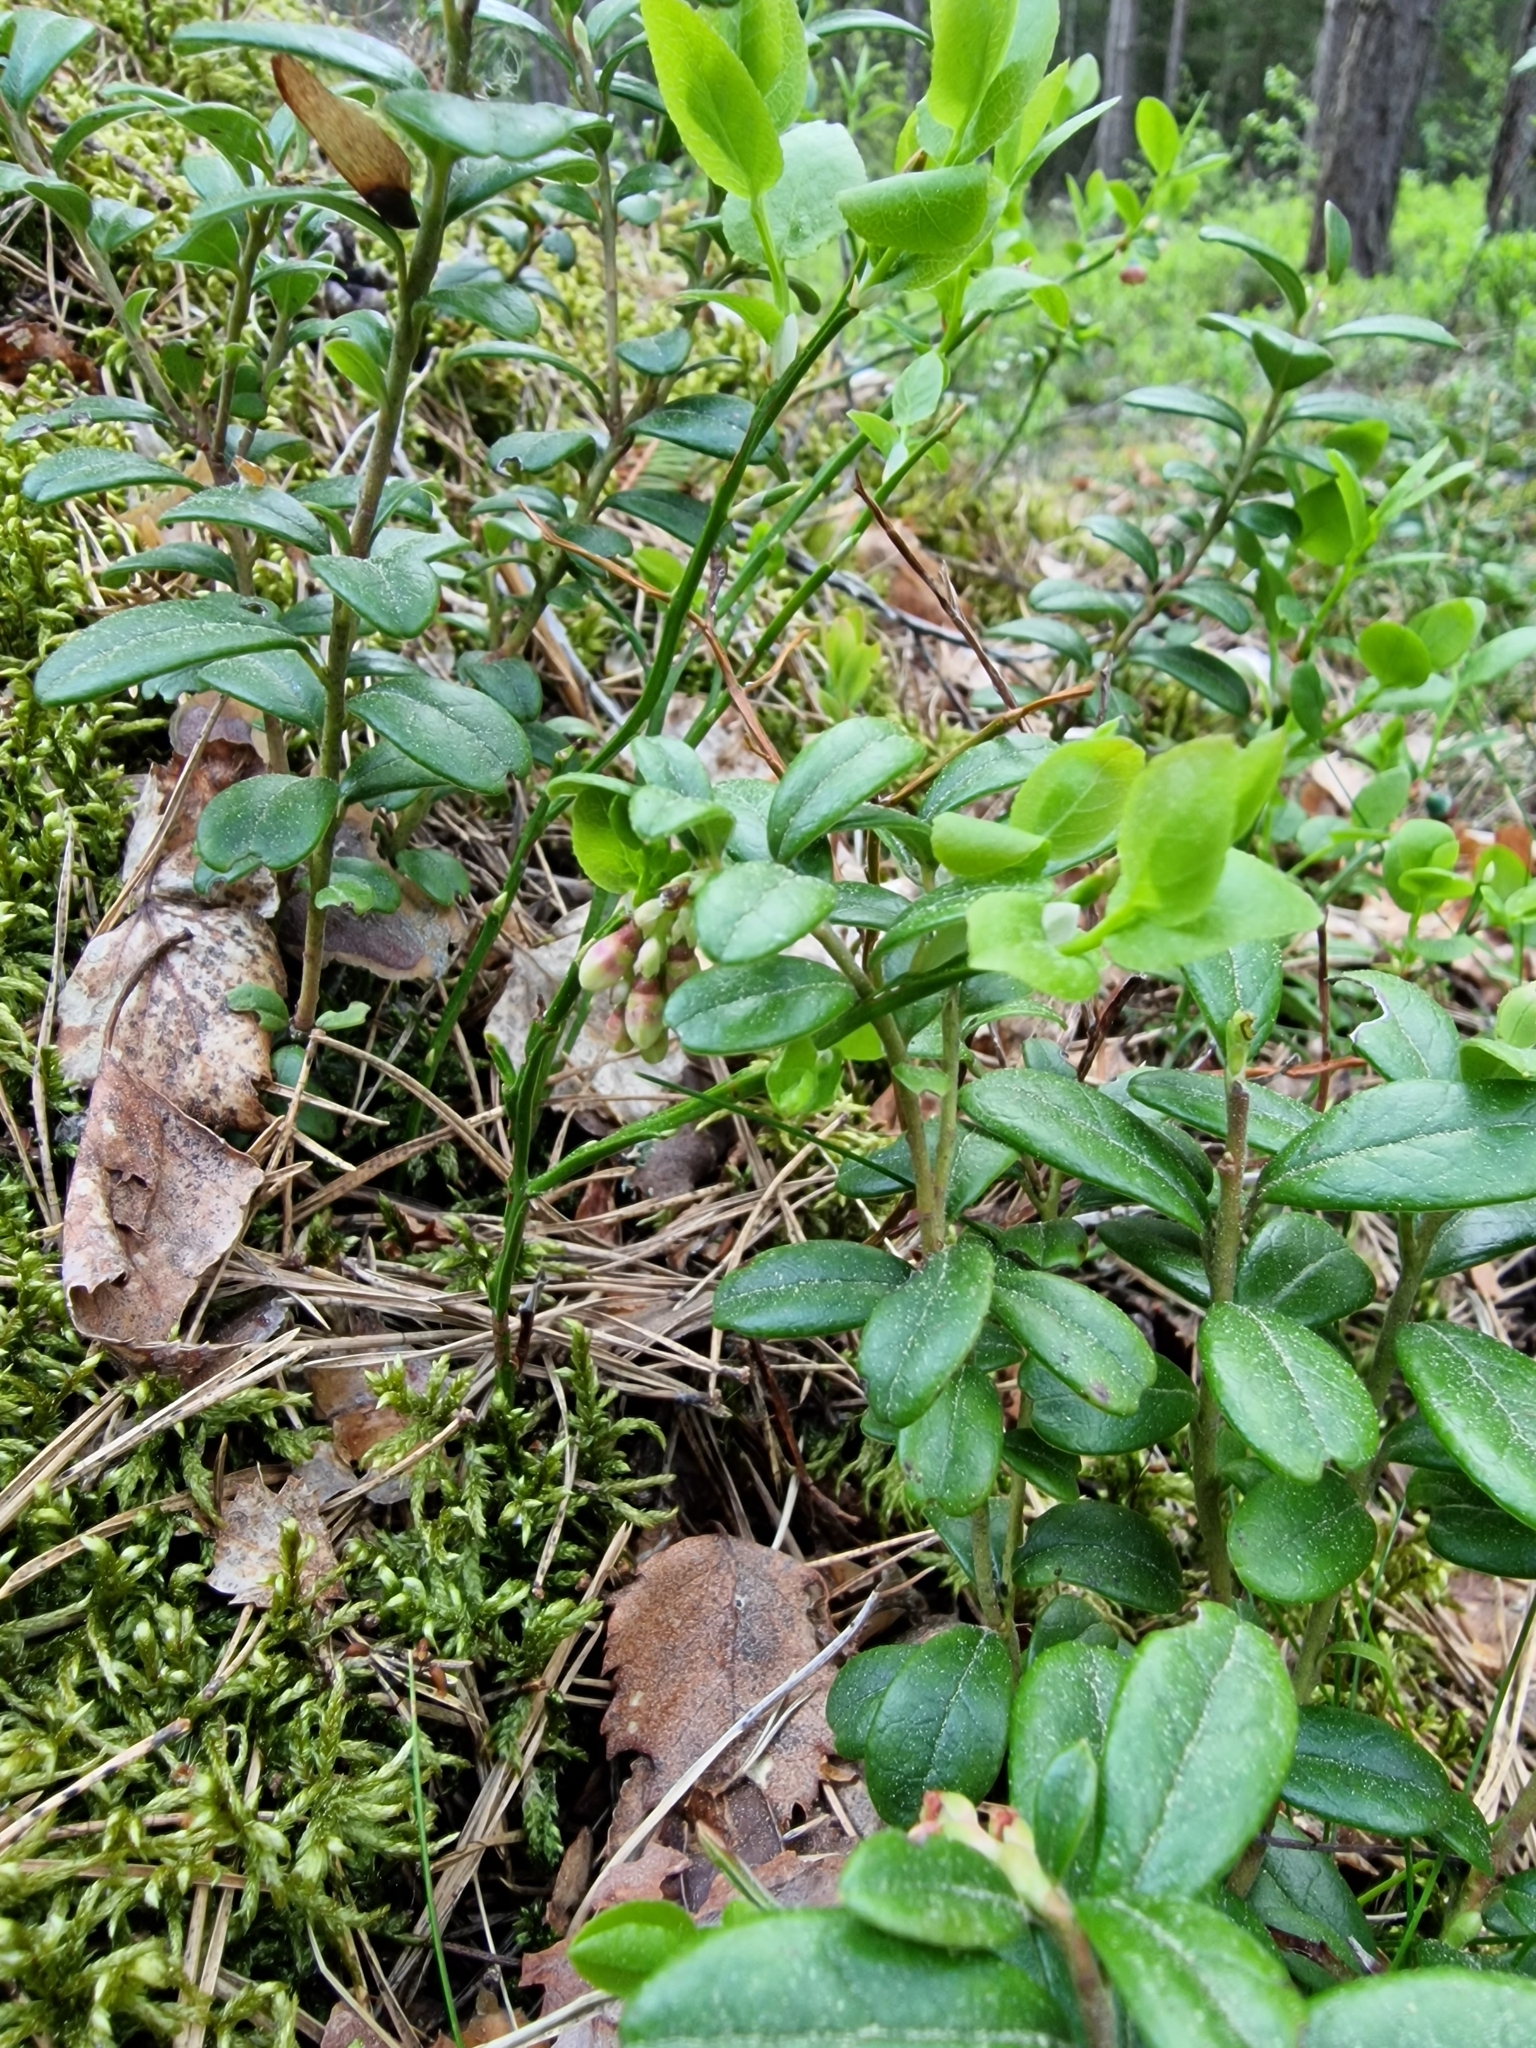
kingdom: Plantae
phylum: Tracheophyta
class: Magnoliopsida
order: Ericales
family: Ericaceae
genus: Vaccinium
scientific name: Vaccinium vitis-idaea
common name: Cowberry
